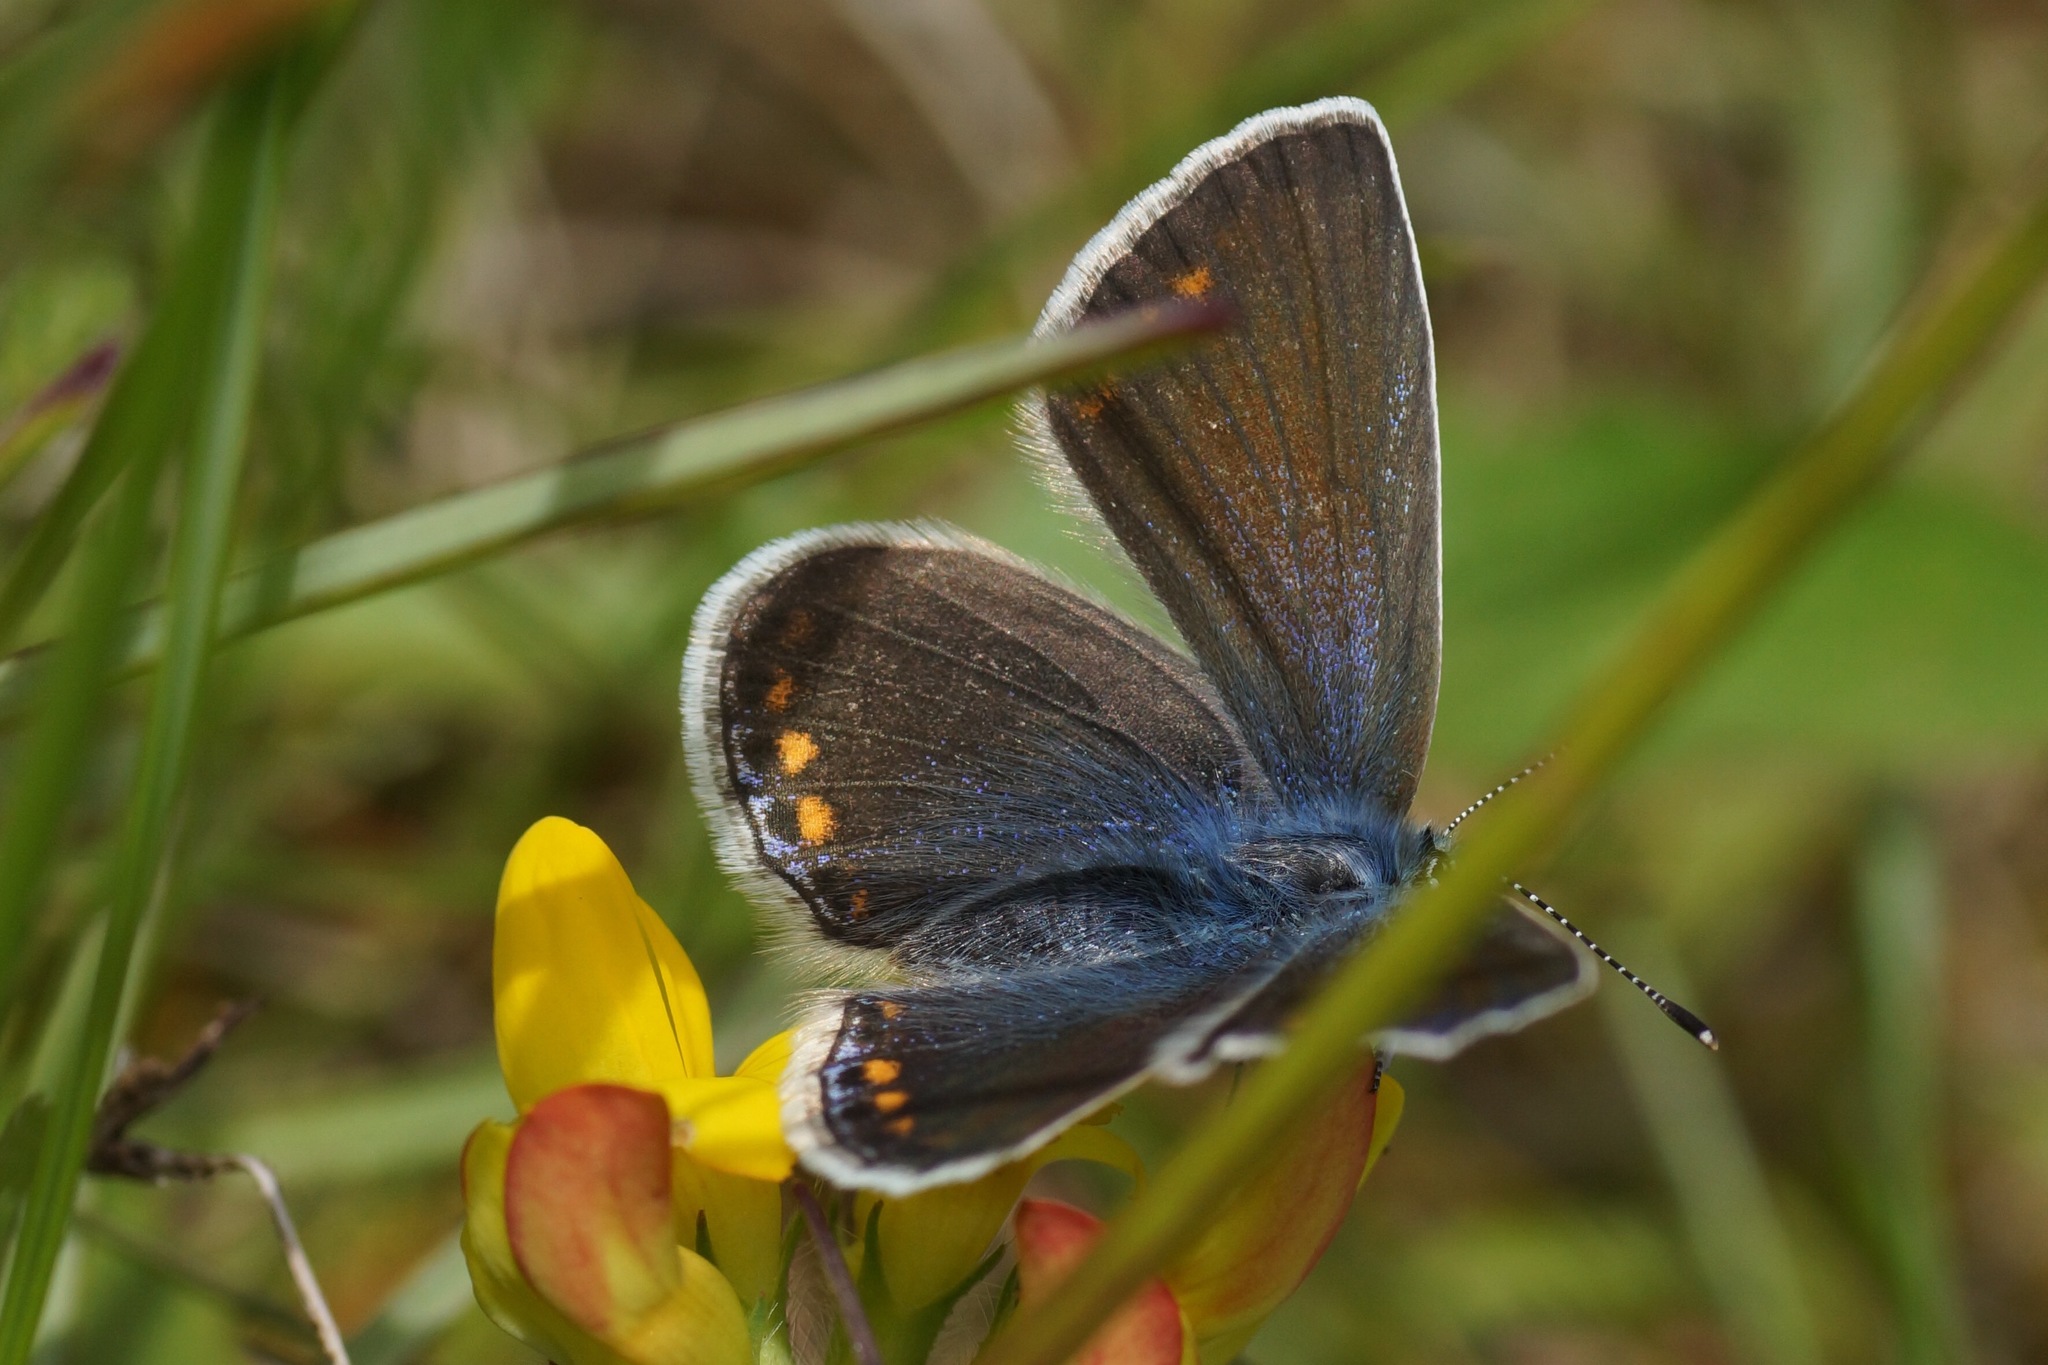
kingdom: Animalia
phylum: Arthropoda
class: Insecta
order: Lepidoptera
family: Lycaenidae
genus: Polyommatus
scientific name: Polyommatus icarus
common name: Common blue
